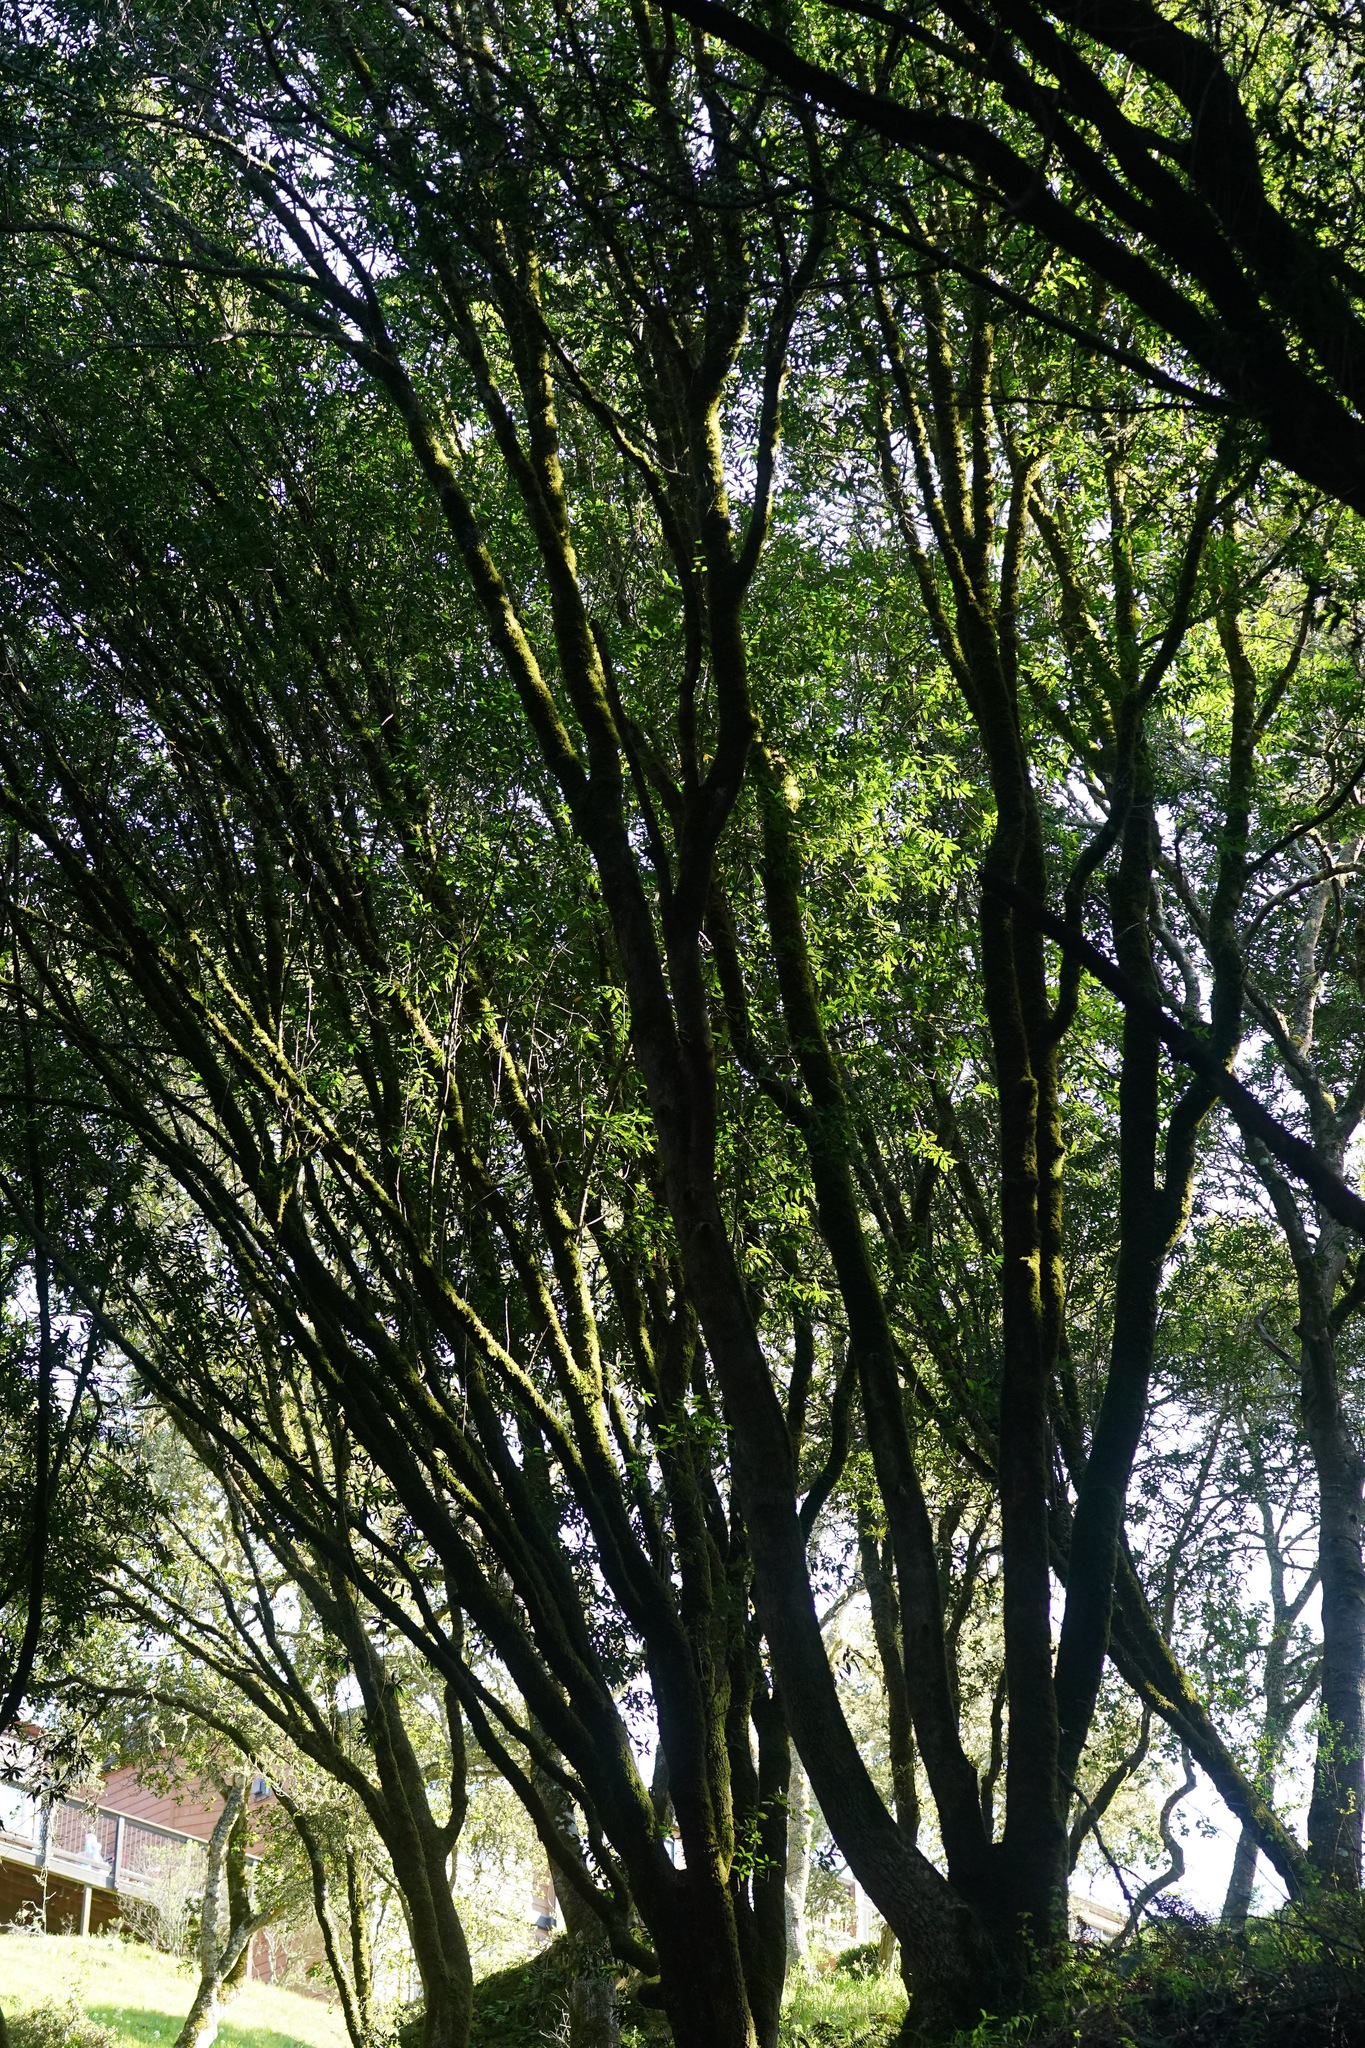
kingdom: Plantae
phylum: Tracheophyta
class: Magnoliopsida
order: Laurales
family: Lauraceae
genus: Umbellularia
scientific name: Umbellularia californica
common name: California bay
